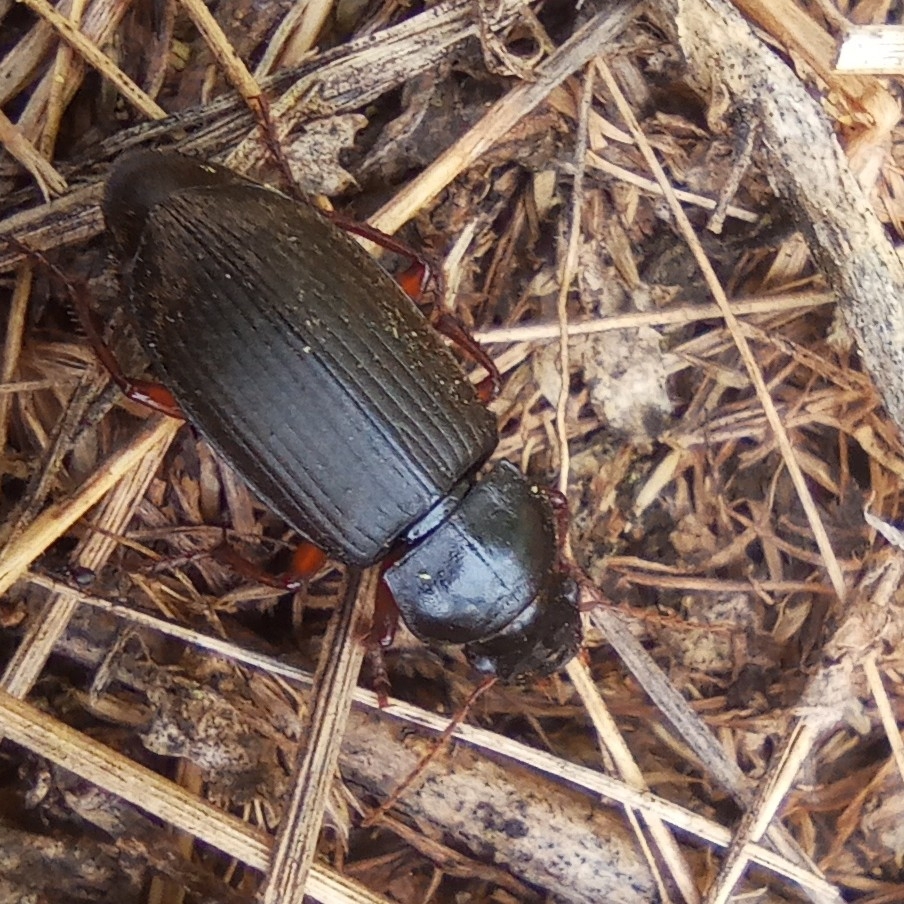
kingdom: Animalia
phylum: Arthropoda
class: Insecta
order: Coleoptera
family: Carabidae
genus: Harpalus
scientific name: Harpalus rufipes
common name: Strawberry harp ground beetle
